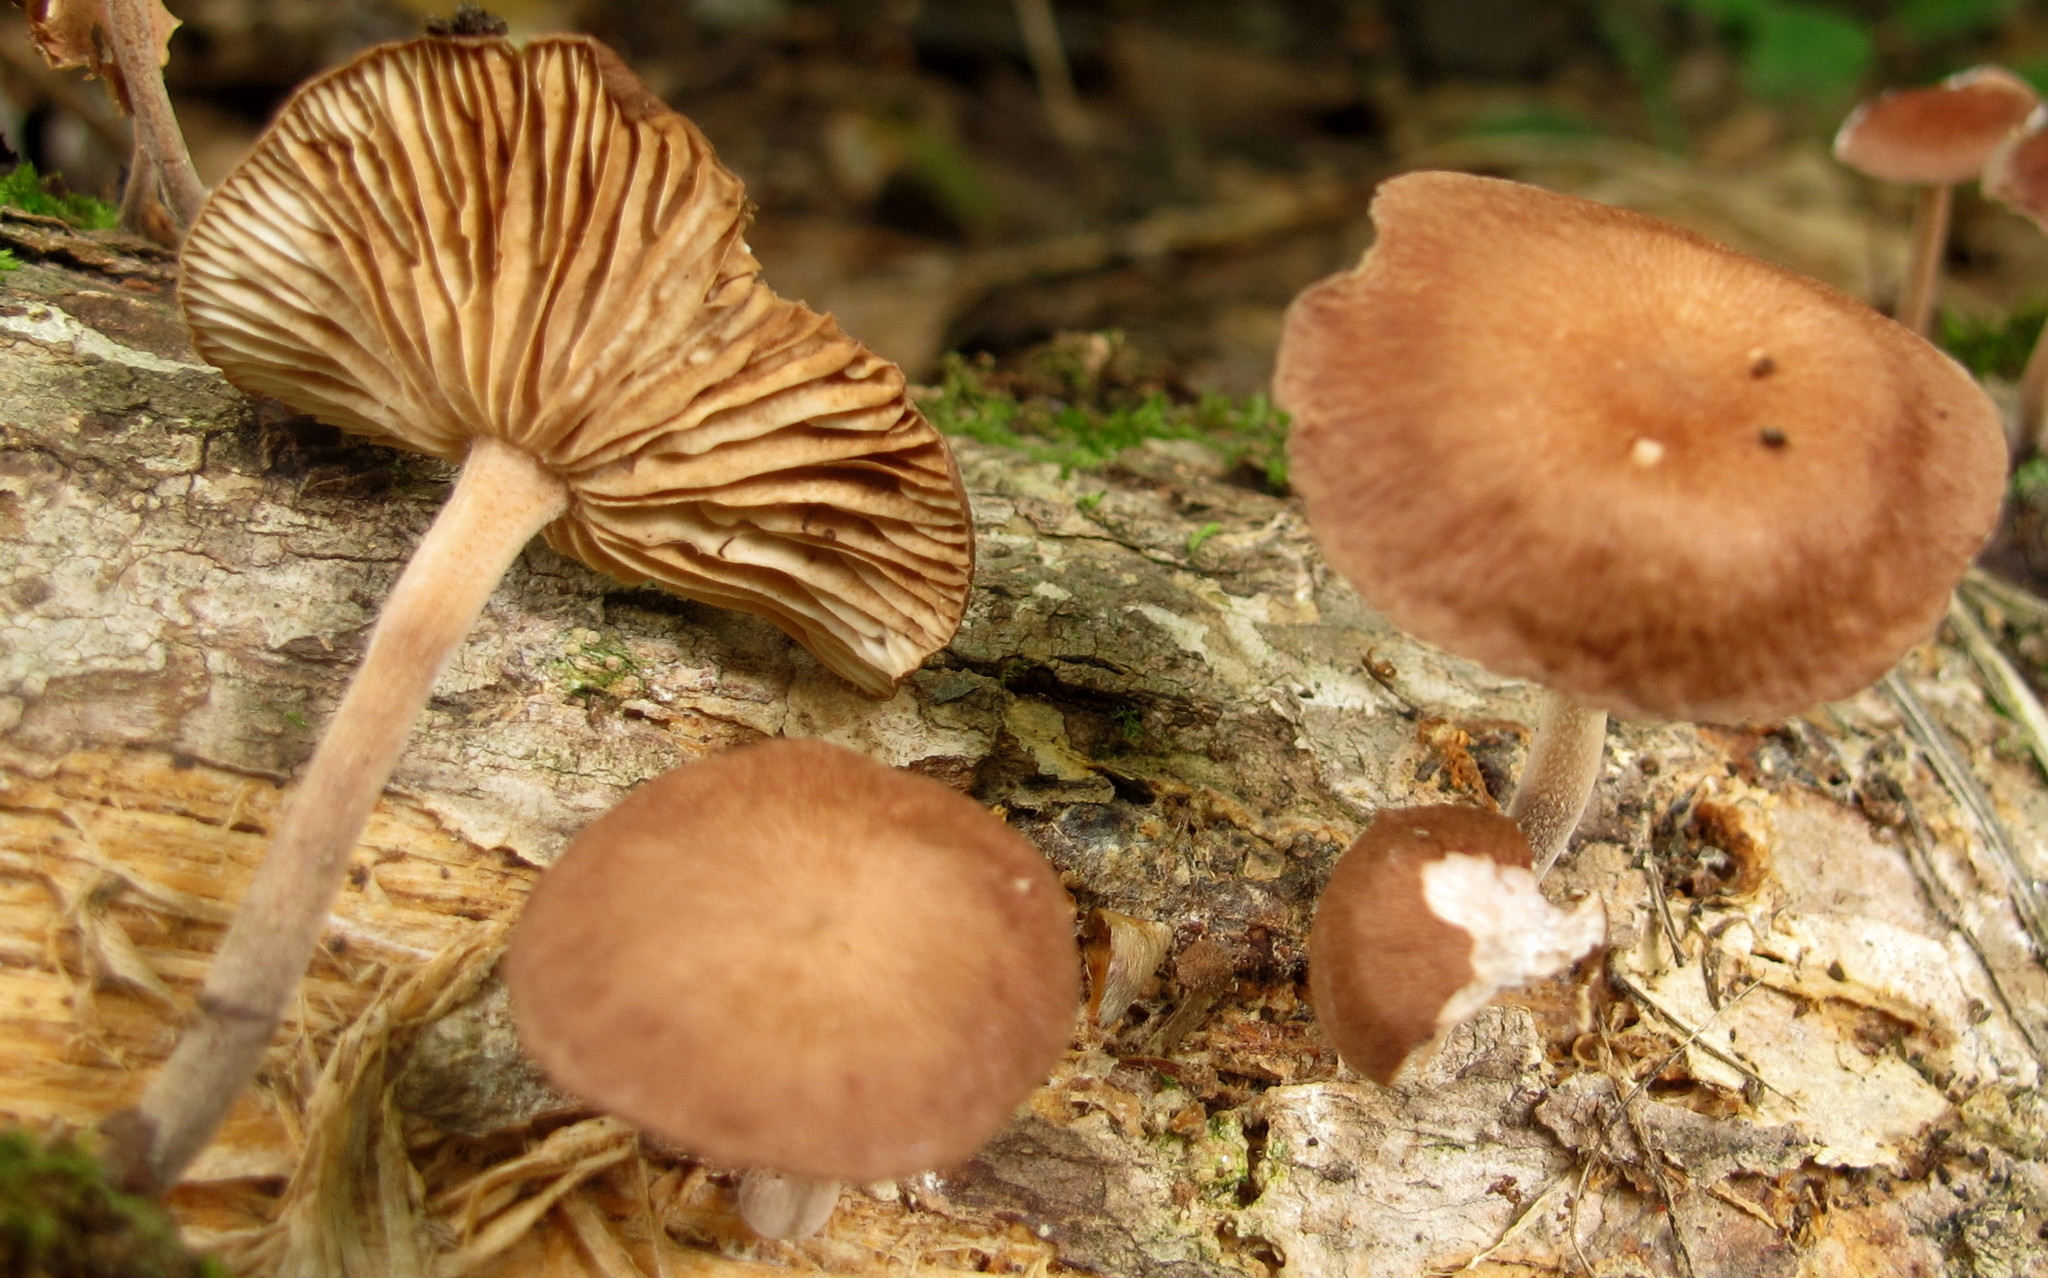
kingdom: Fungi
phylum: Basidiomycota
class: Agaricomycetes
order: Agaricales
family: Omphalotaceae
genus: Collybiopsis
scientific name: Collybiopsis dichroa
